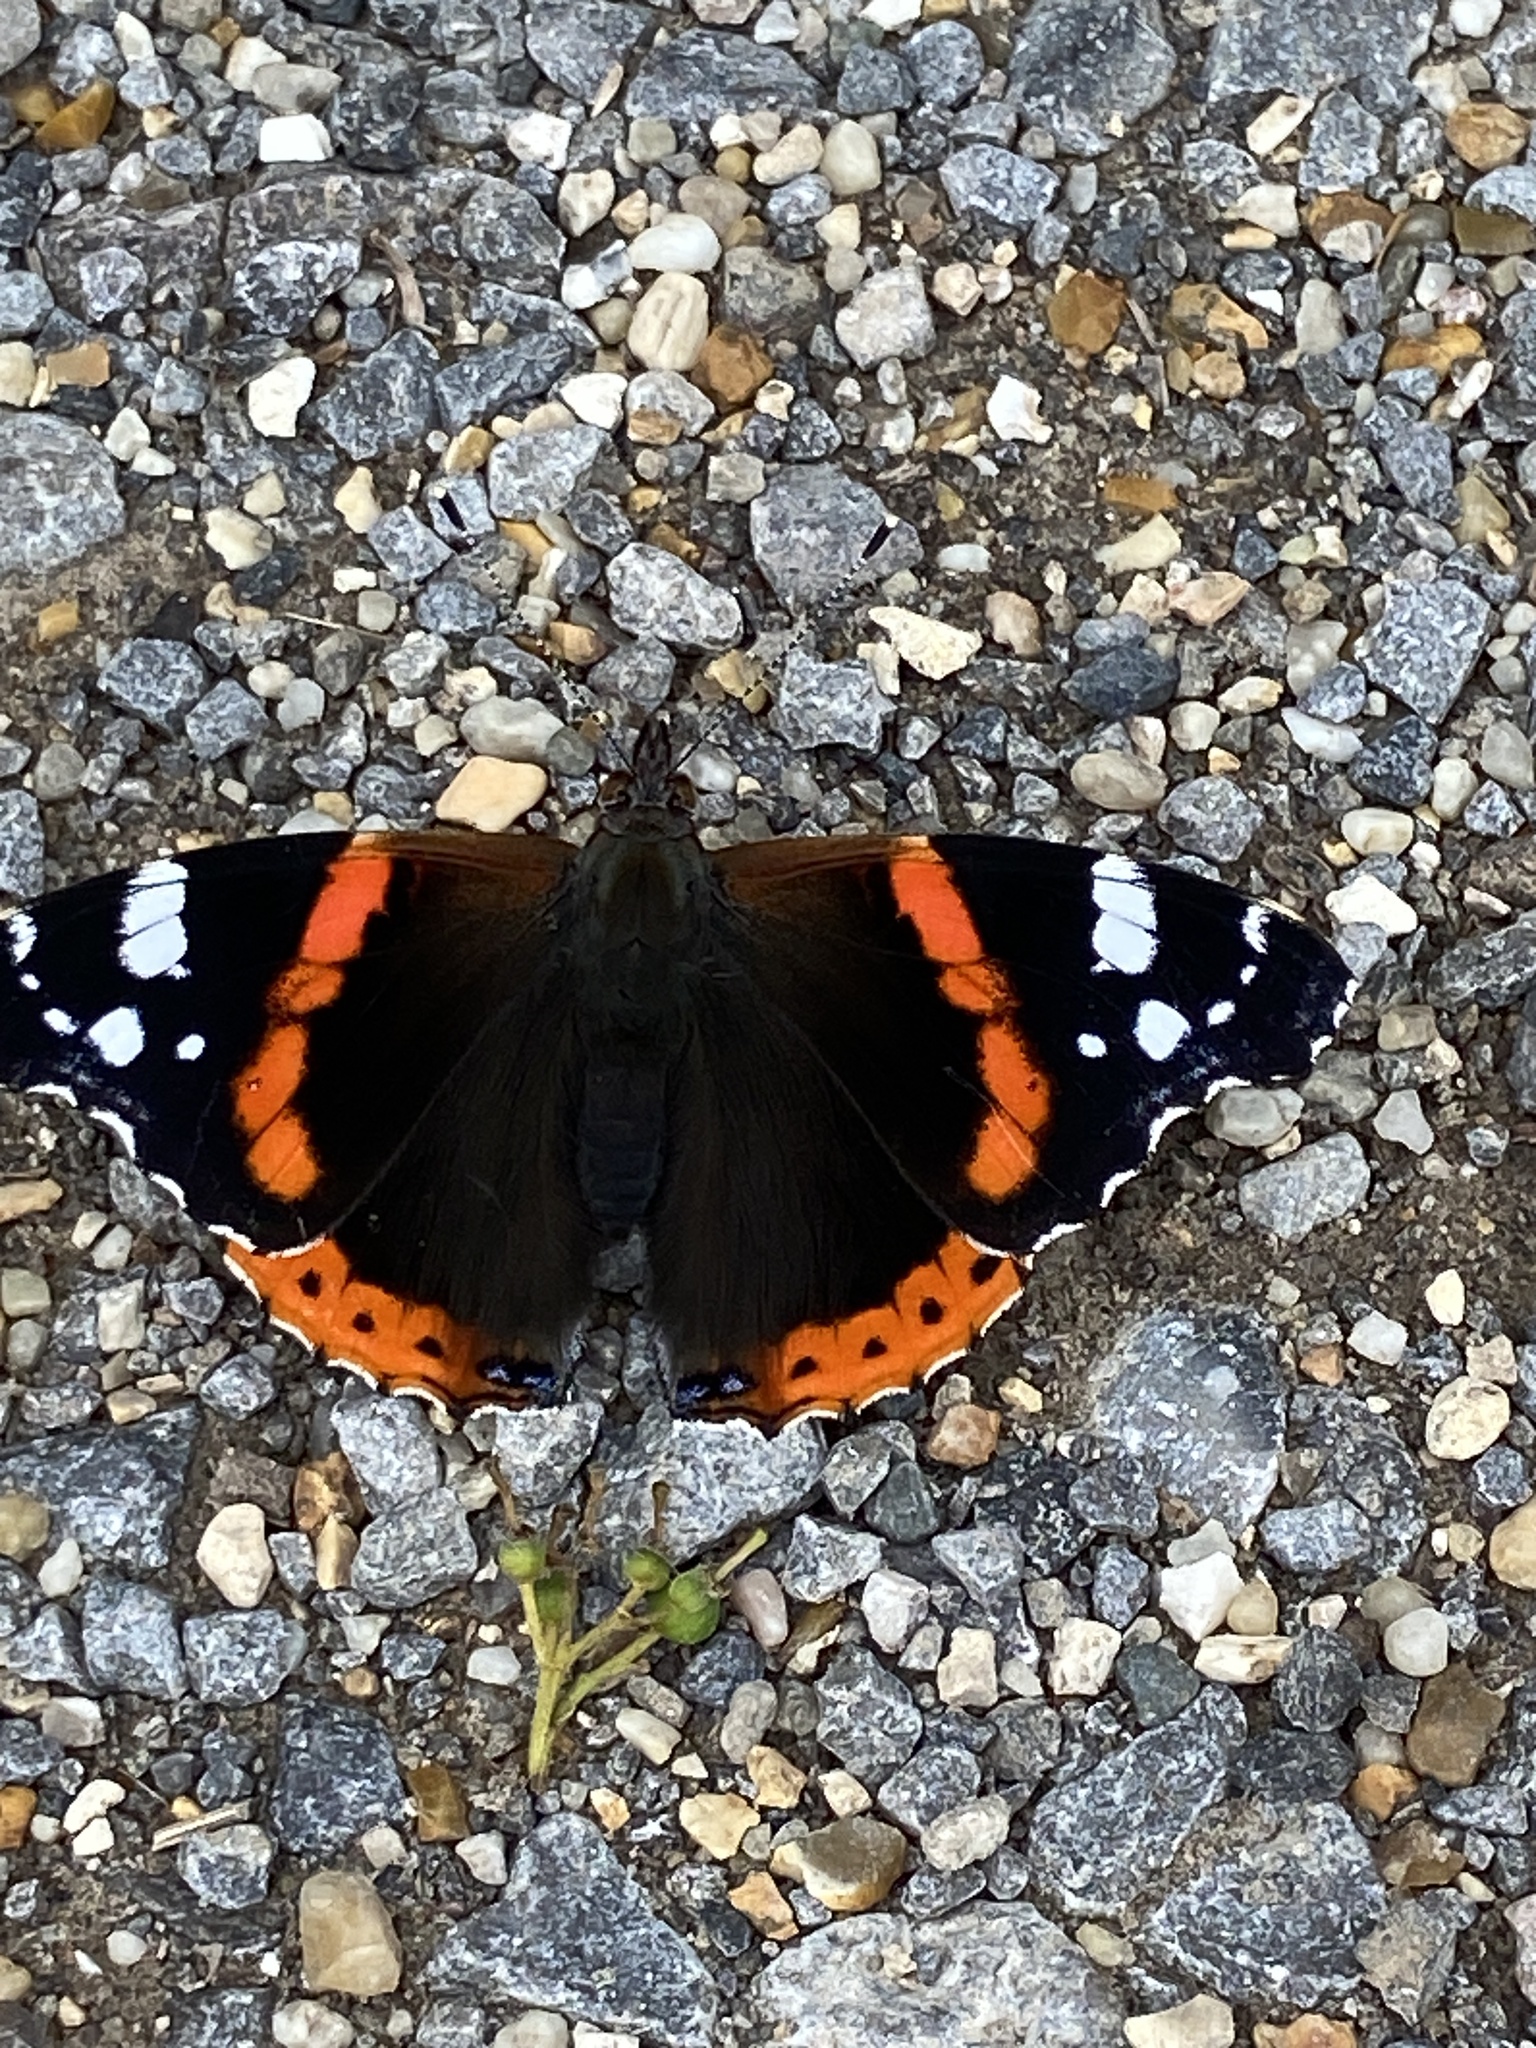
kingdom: Animalia
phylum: Arthropoda
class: Insecta
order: Lepidoptera
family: Nymphalidae
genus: Vanessa
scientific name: Vanessa atalanta
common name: Red admiral
